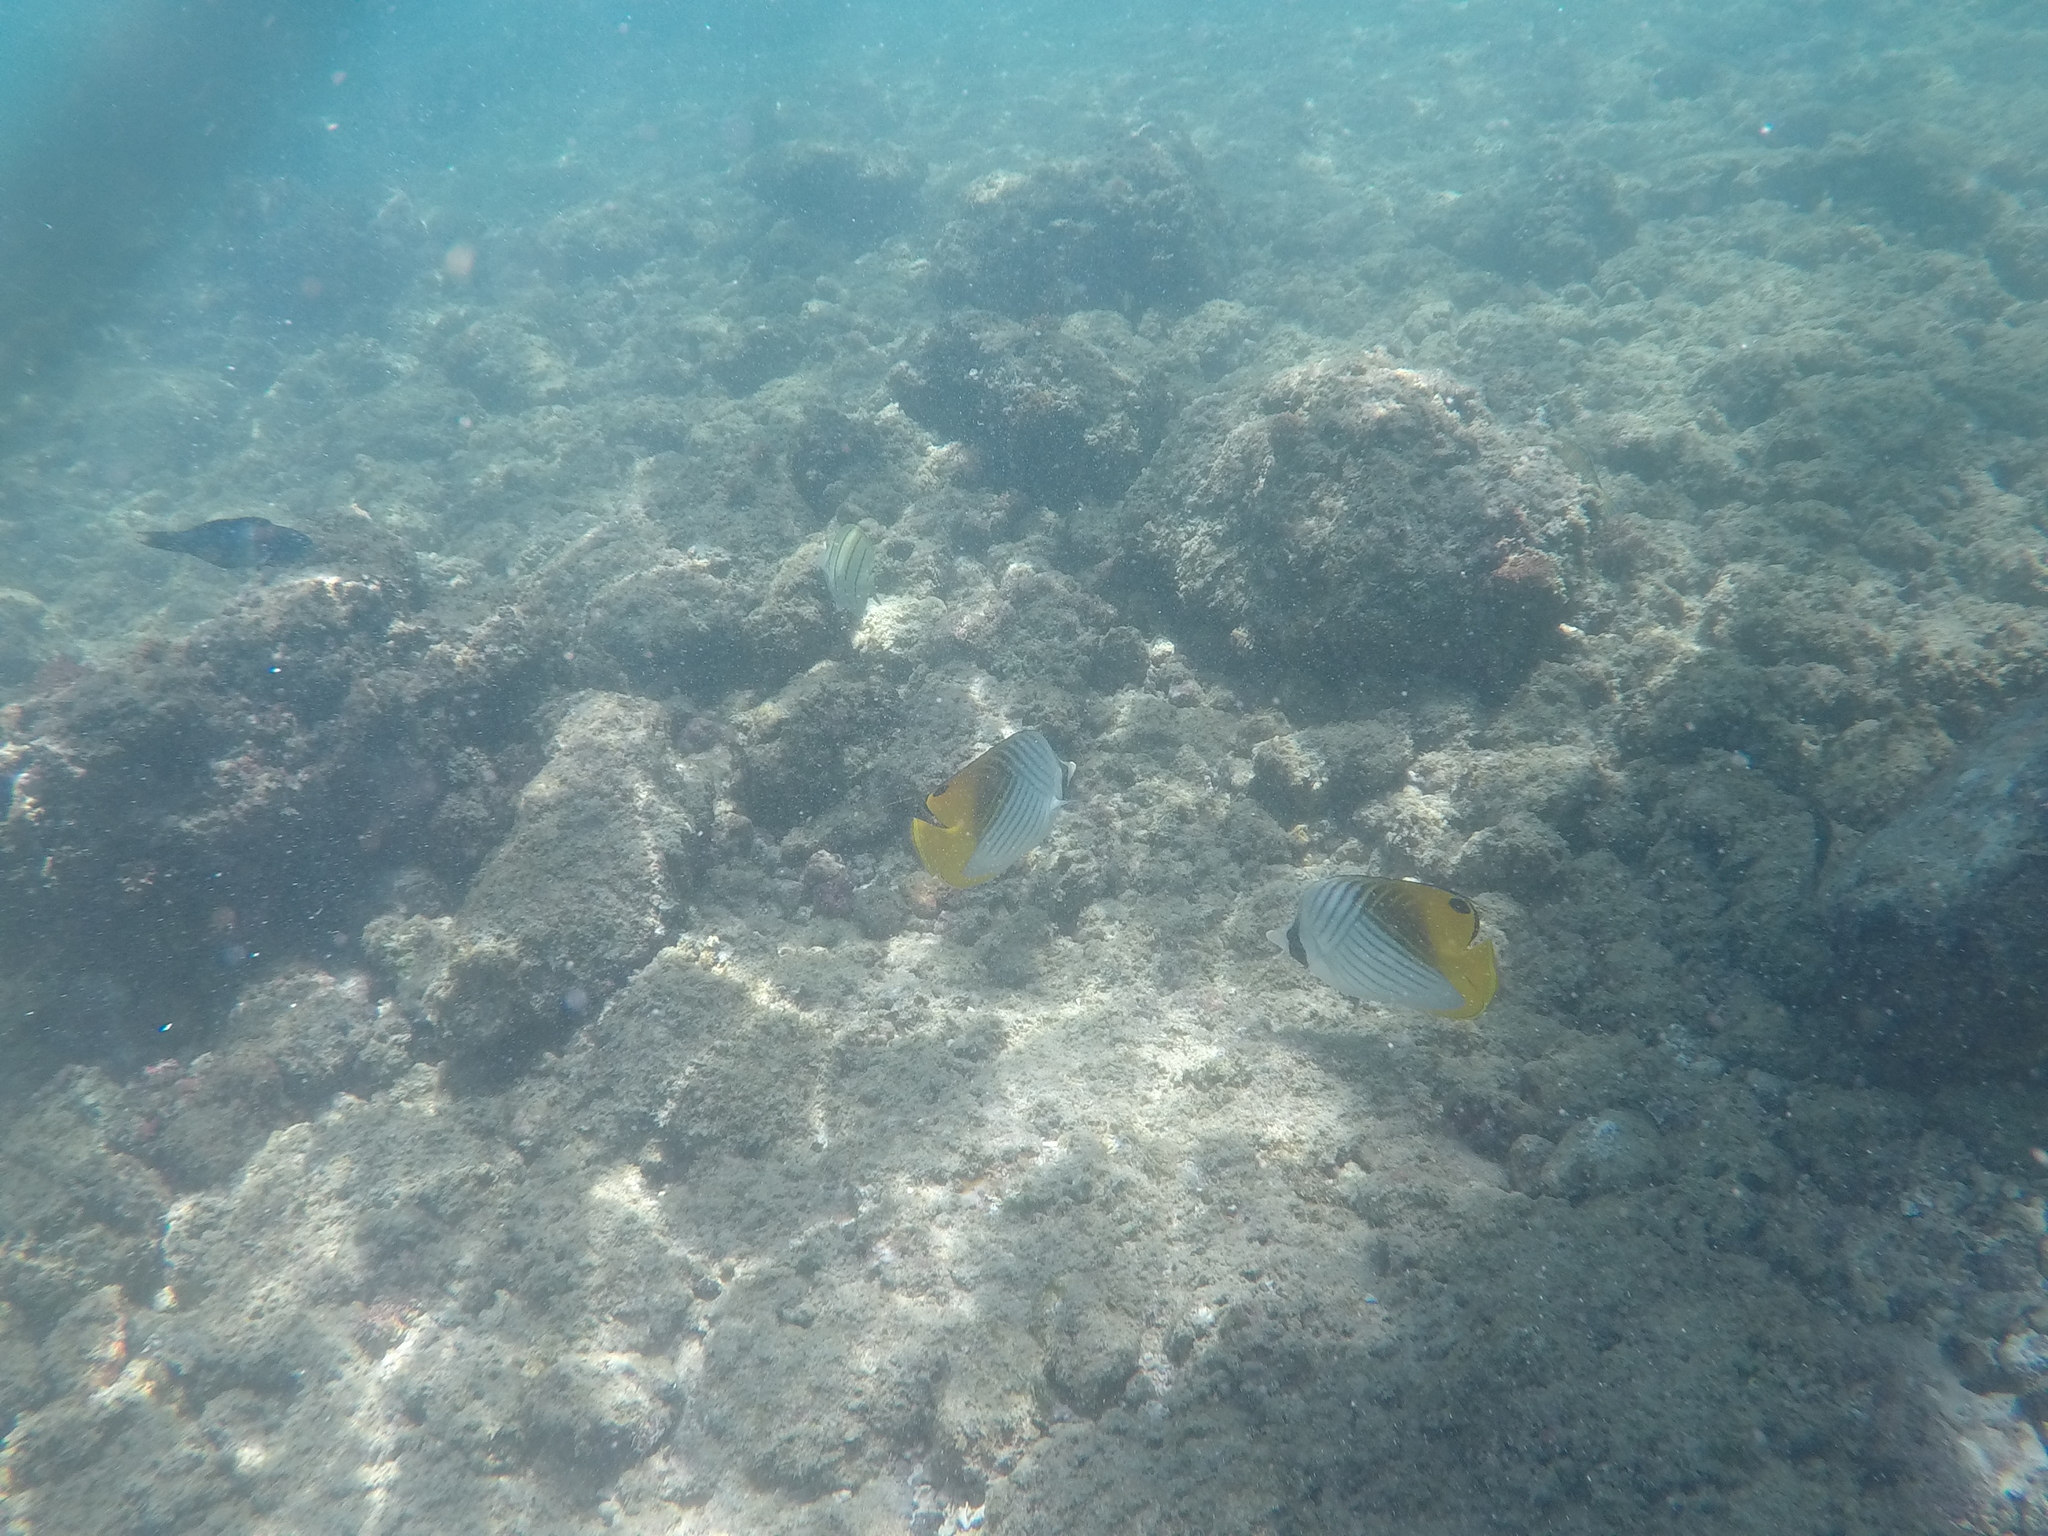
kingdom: Animalia
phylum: Chordata
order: Perciformes
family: Chaetodontidae
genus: Chaetodon
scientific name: Chaetodon auriga
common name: Threadfin butterflyfish
